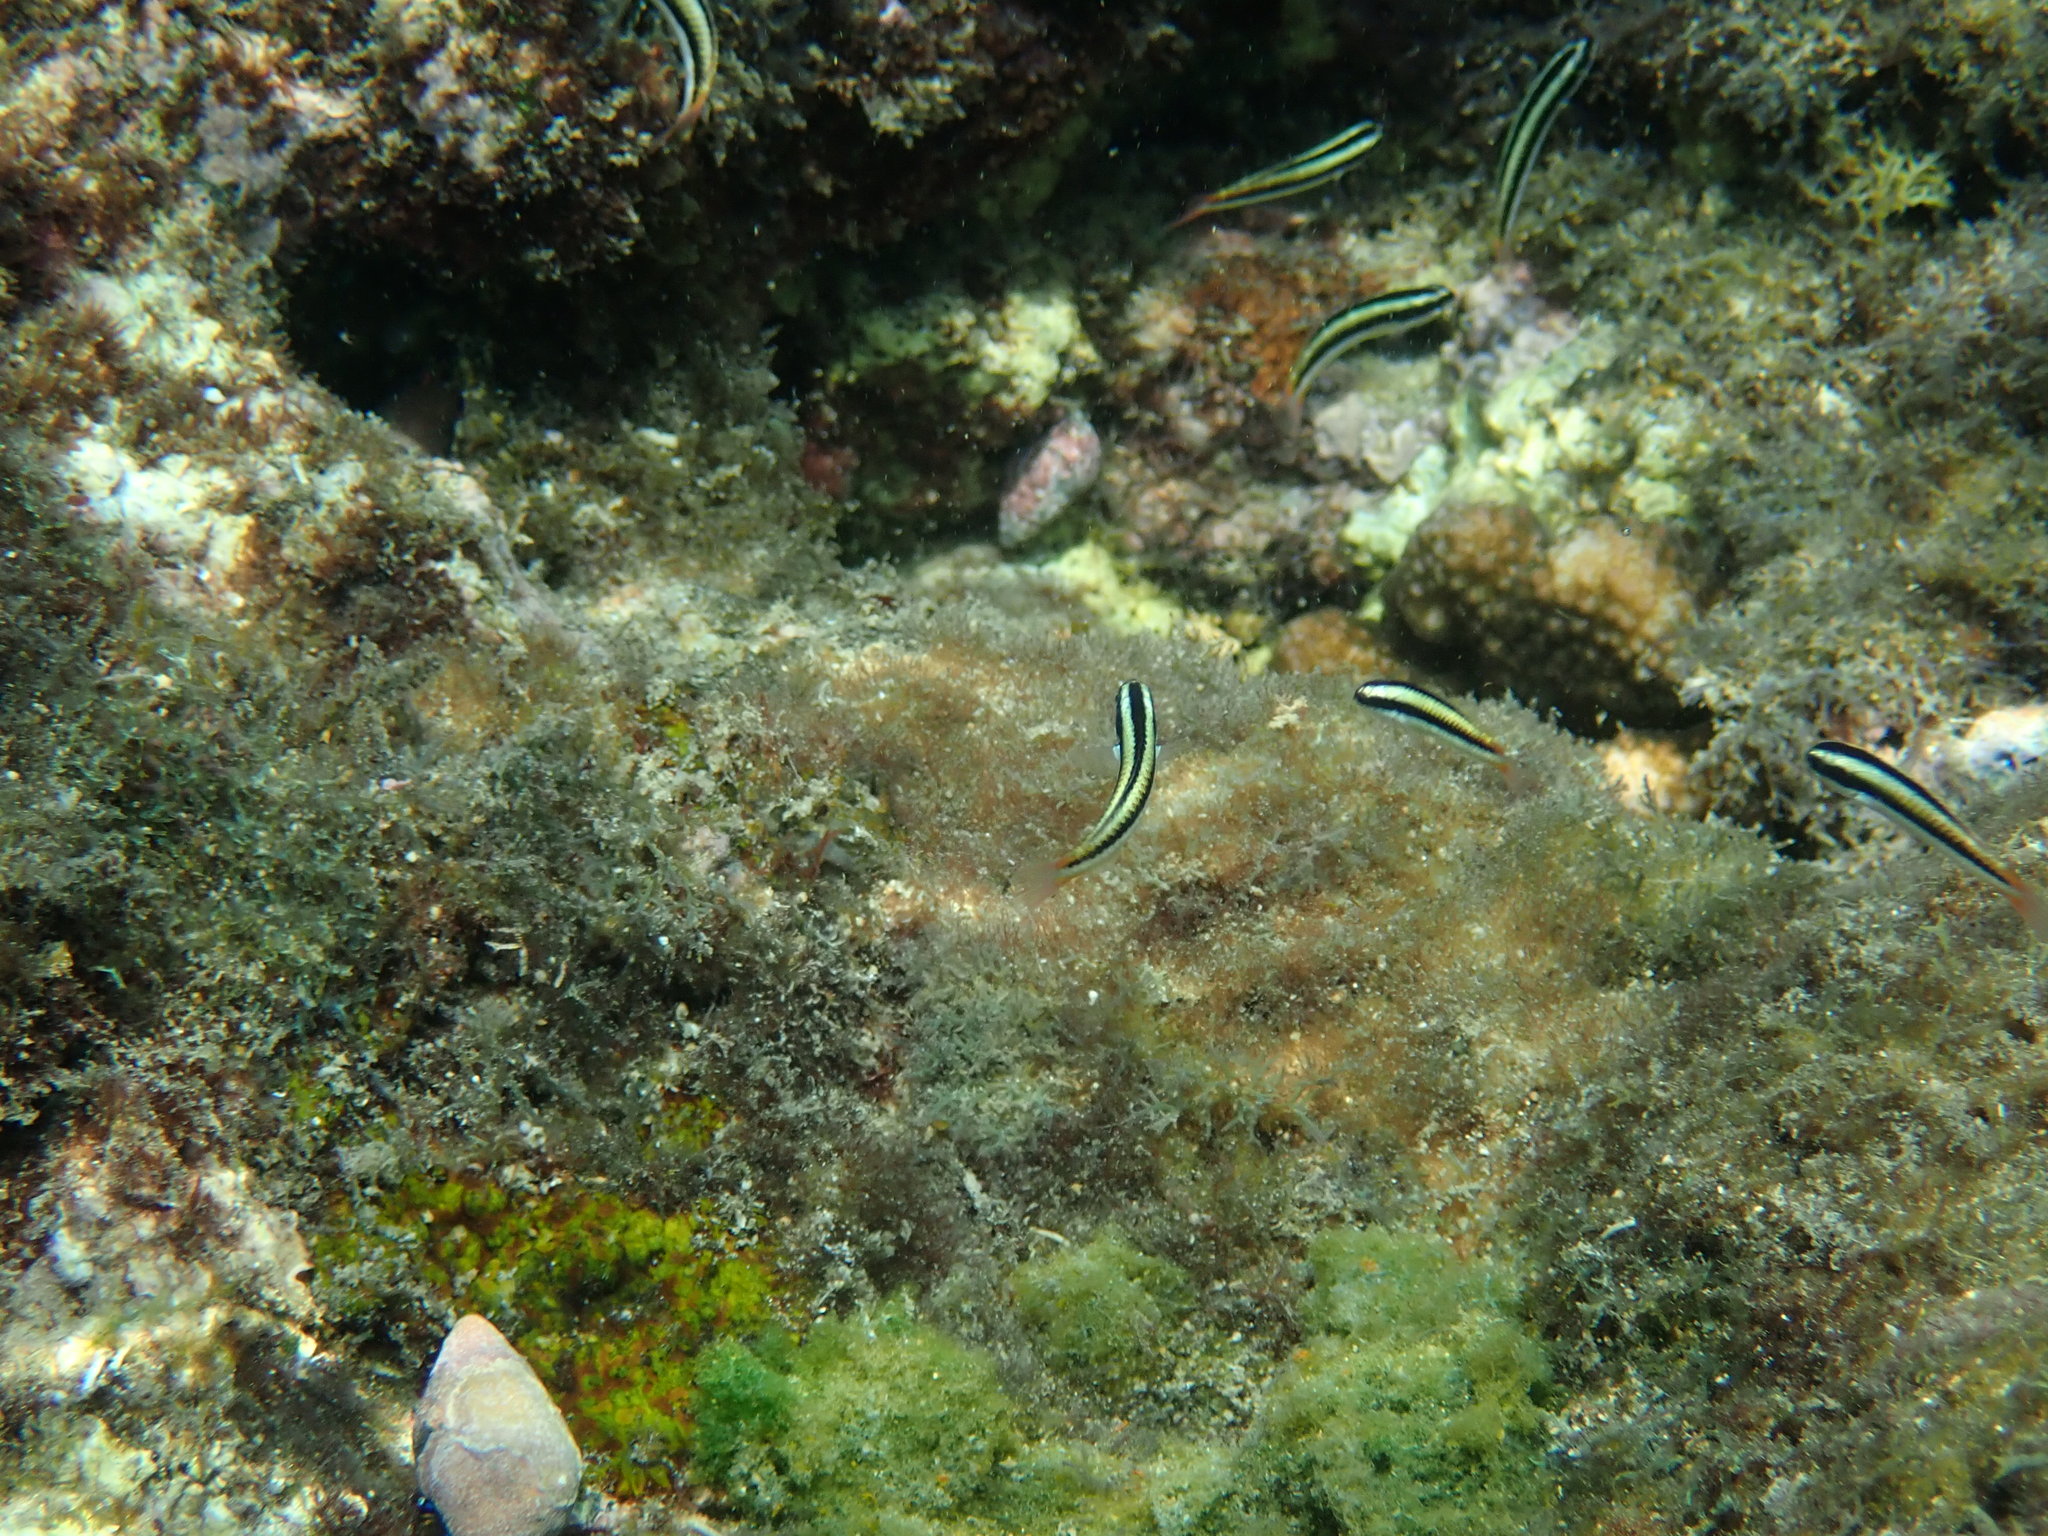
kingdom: Animalia
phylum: Chordata
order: Perciformes
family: Labridae
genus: Thalassoma
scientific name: Thalassoma amblycephalum
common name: Bluehead wrasse
